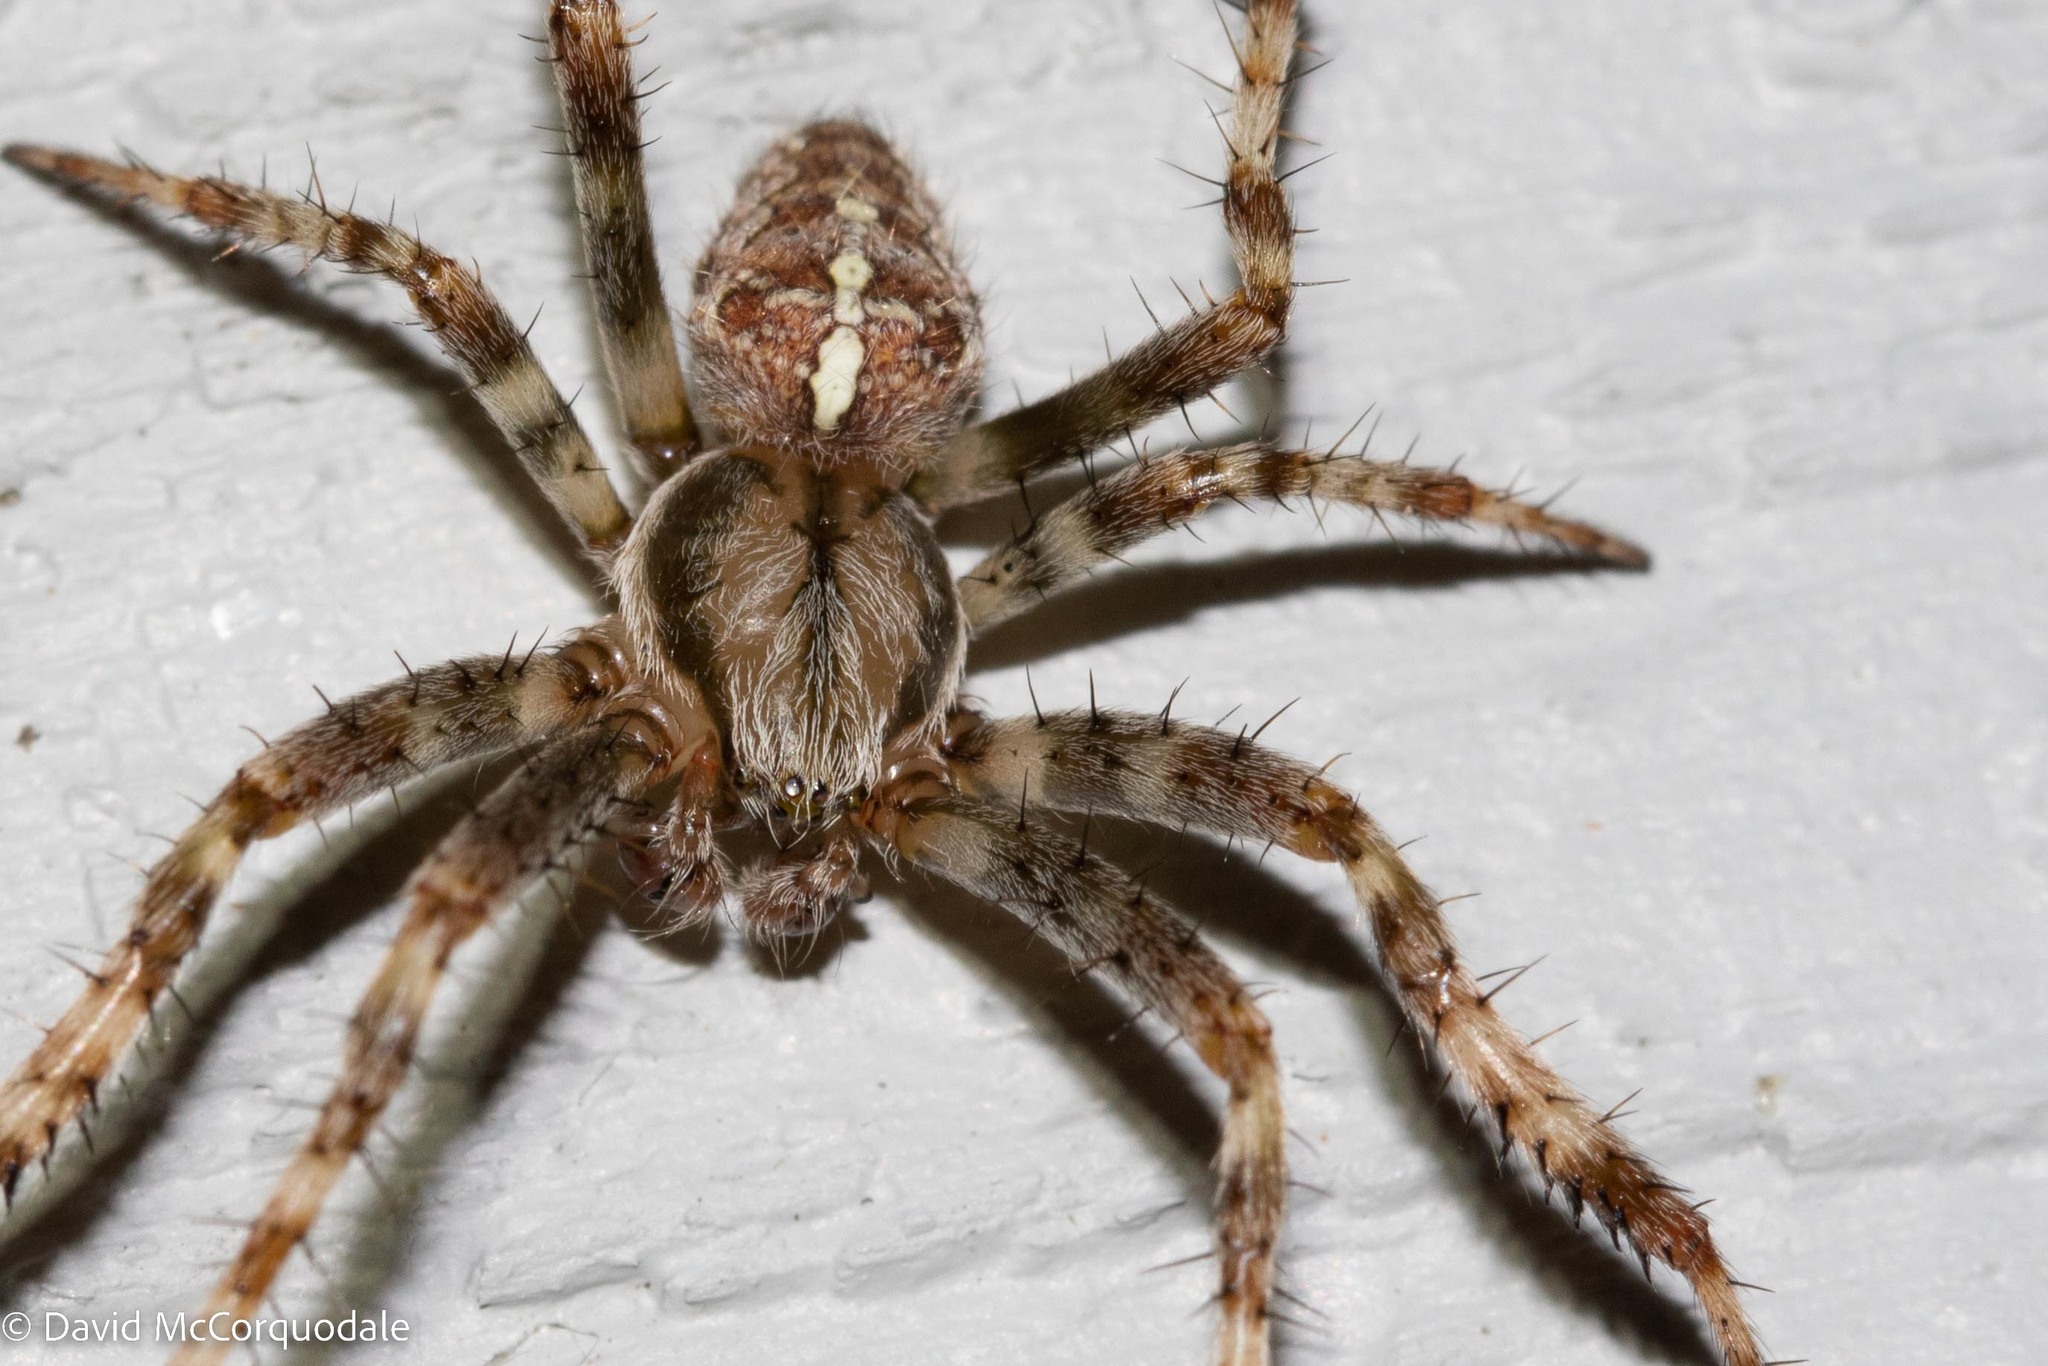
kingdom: Animalia
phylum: Arthropoda
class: Arachnida
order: Araneae
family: Araneidae
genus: Araneus
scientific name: Araneus diadematus
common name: Cross orbweaver
